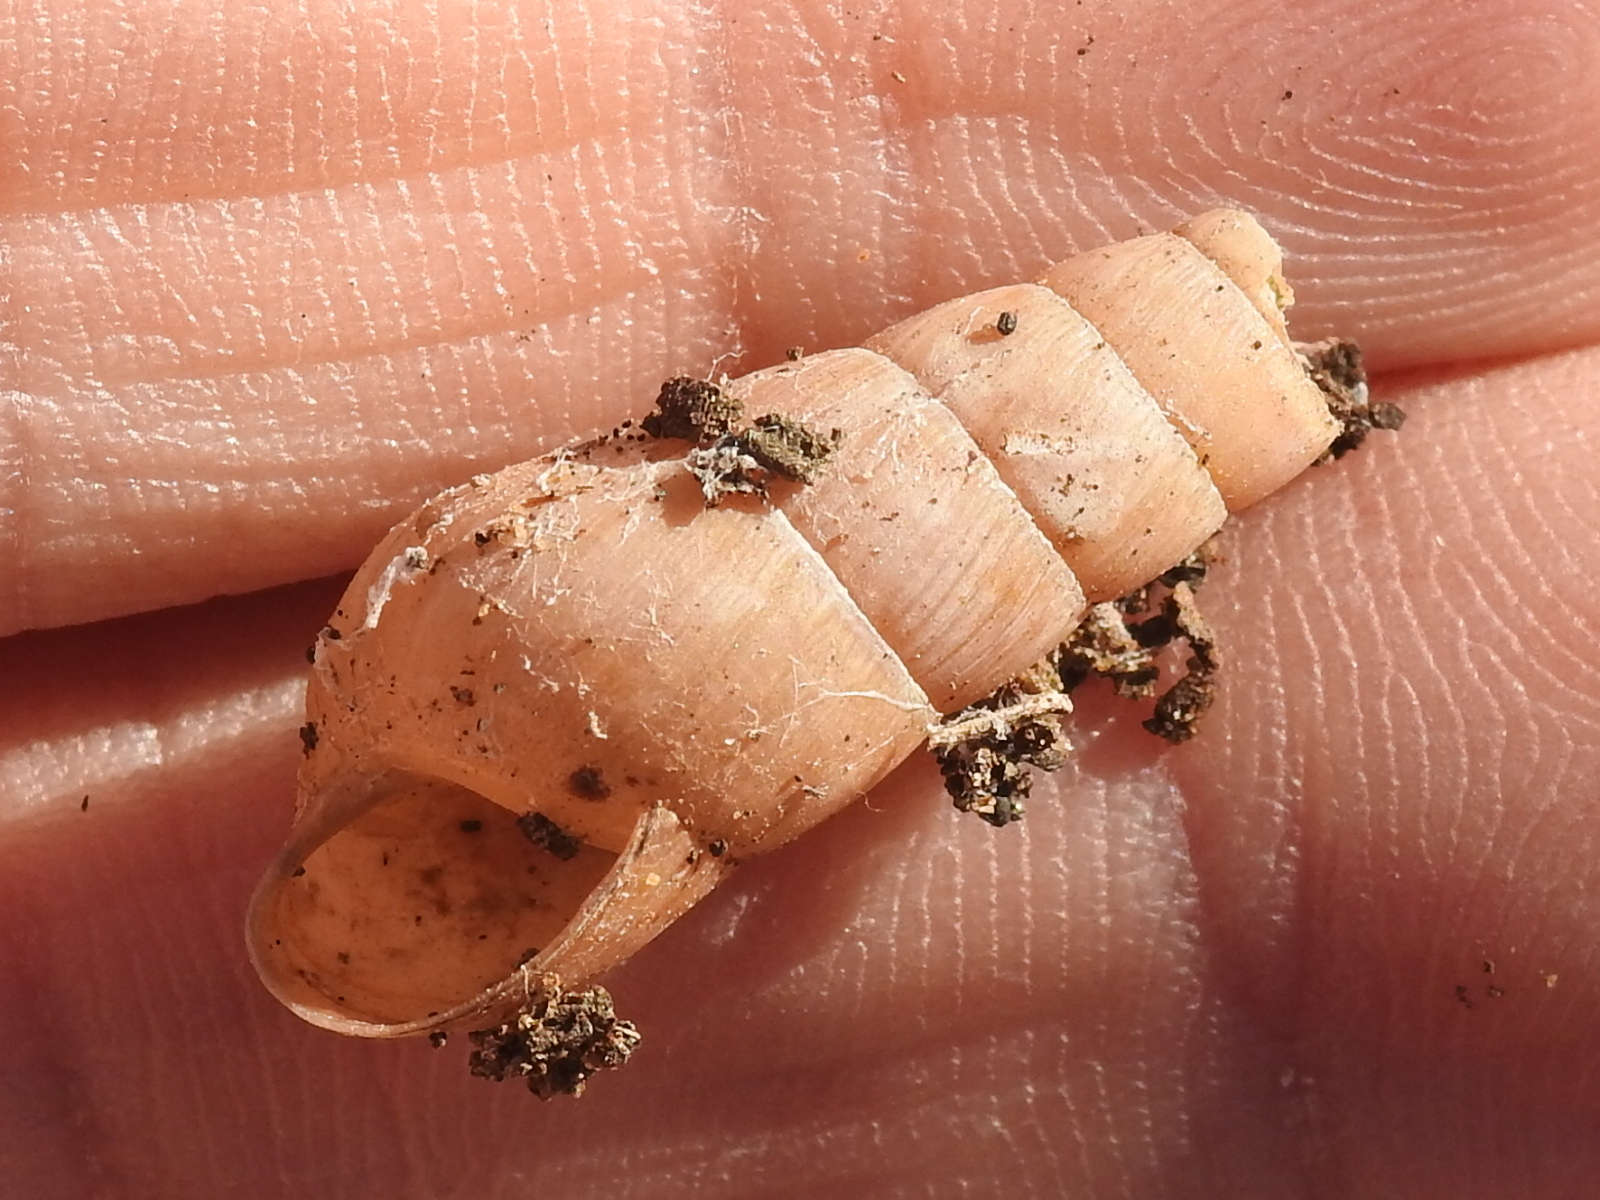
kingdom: Animalia
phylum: Mollusca
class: Gastropoda
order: Stylommatophora
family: Achatinidae
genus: Rumina
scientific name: Rumina decollata
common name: Decollate snail
